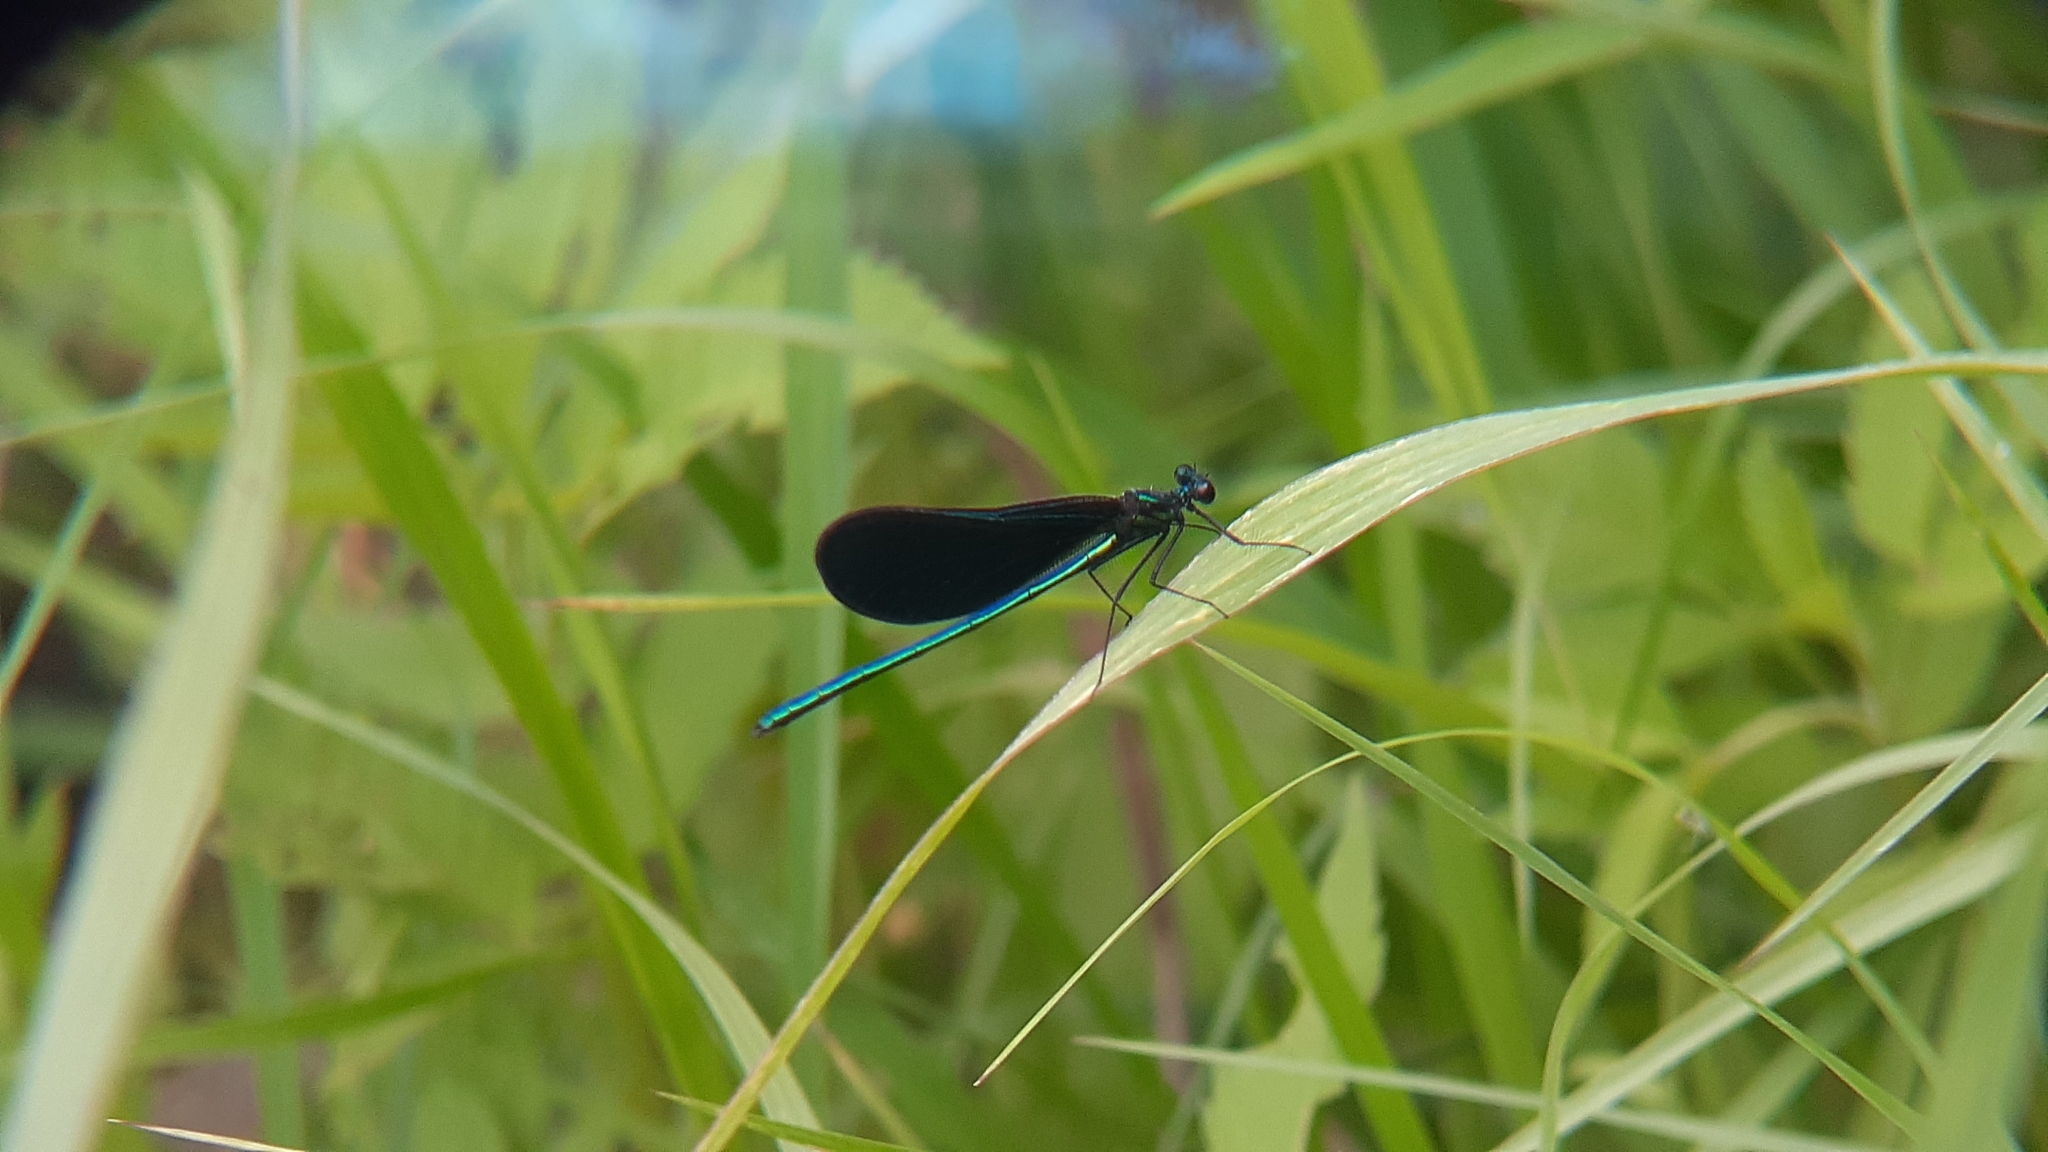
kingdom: Animalia
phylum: Arthropoda
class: Insecta
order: Odonata
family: Calopterygidae
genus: Calopteryx
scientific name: Calopteryx maculata
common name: Ebony jewelwing
